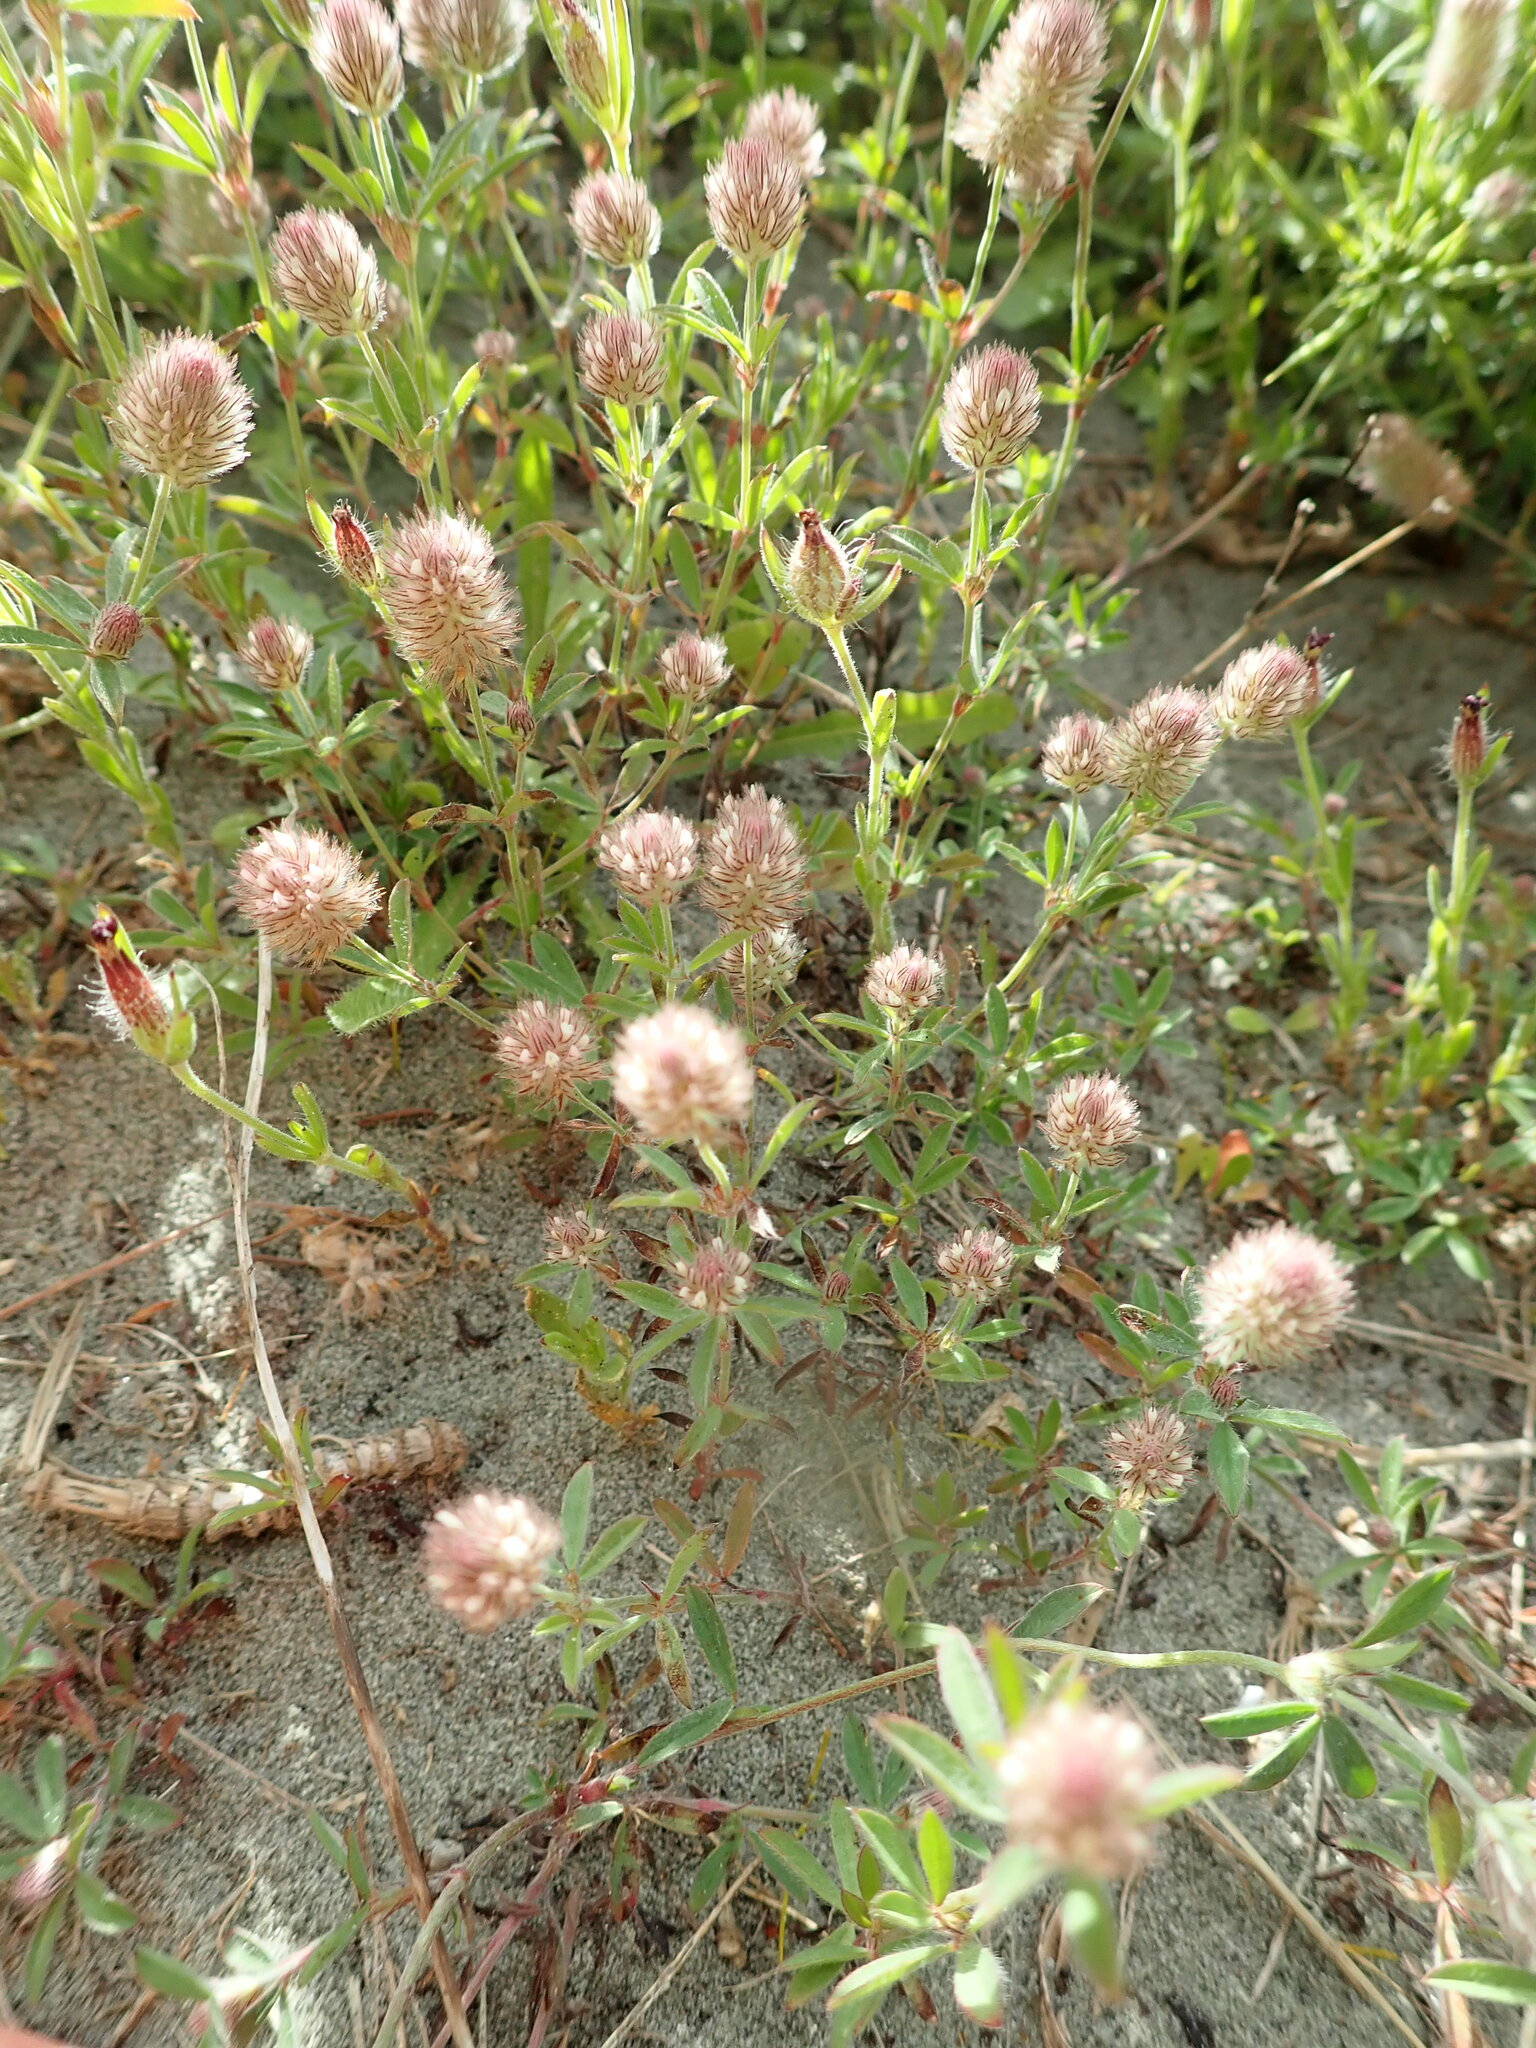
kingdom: Plantae
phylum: Tracheophyta
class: Magnoliopsida
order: Fabales
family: Fabaceae
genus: Trifolium
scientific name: Trifolium arvense
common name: Hare's-foot clover
